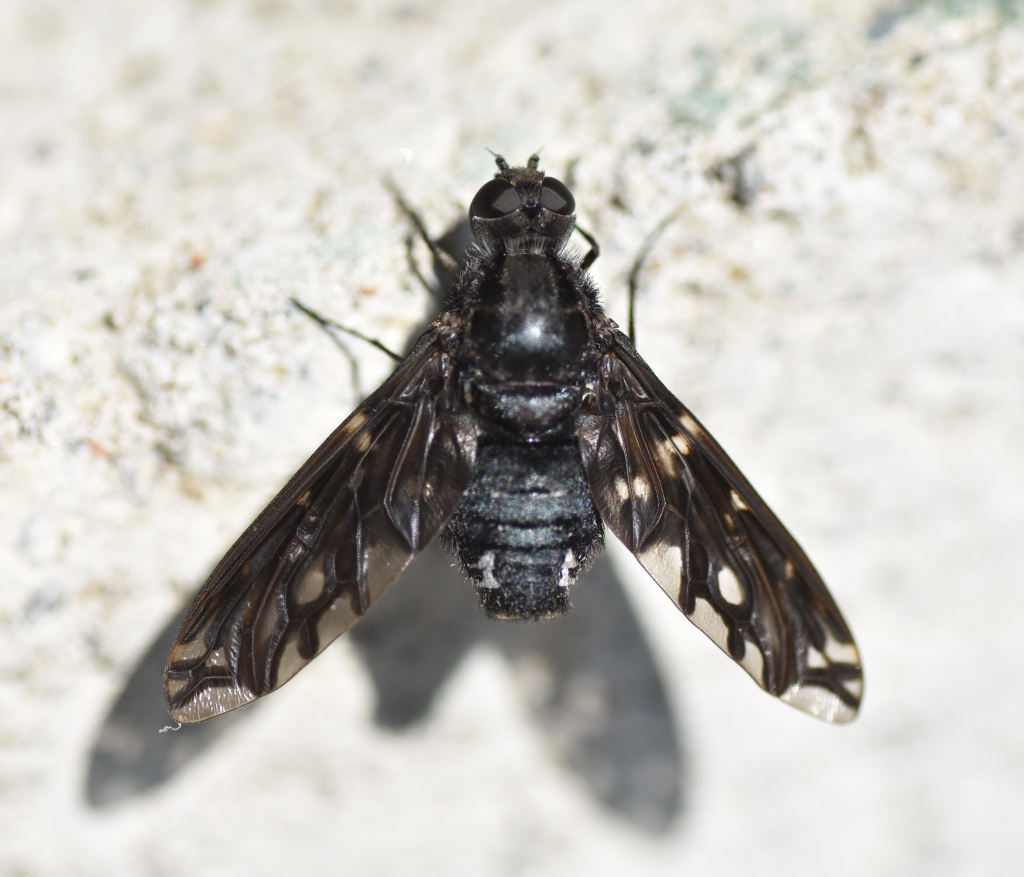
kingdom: Animalia
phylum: Arthropoda
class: Insecta
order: Diptera
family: Bombyliidae
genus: Xenox
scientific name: Xenox tigrinus
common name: Tiger bee fly
